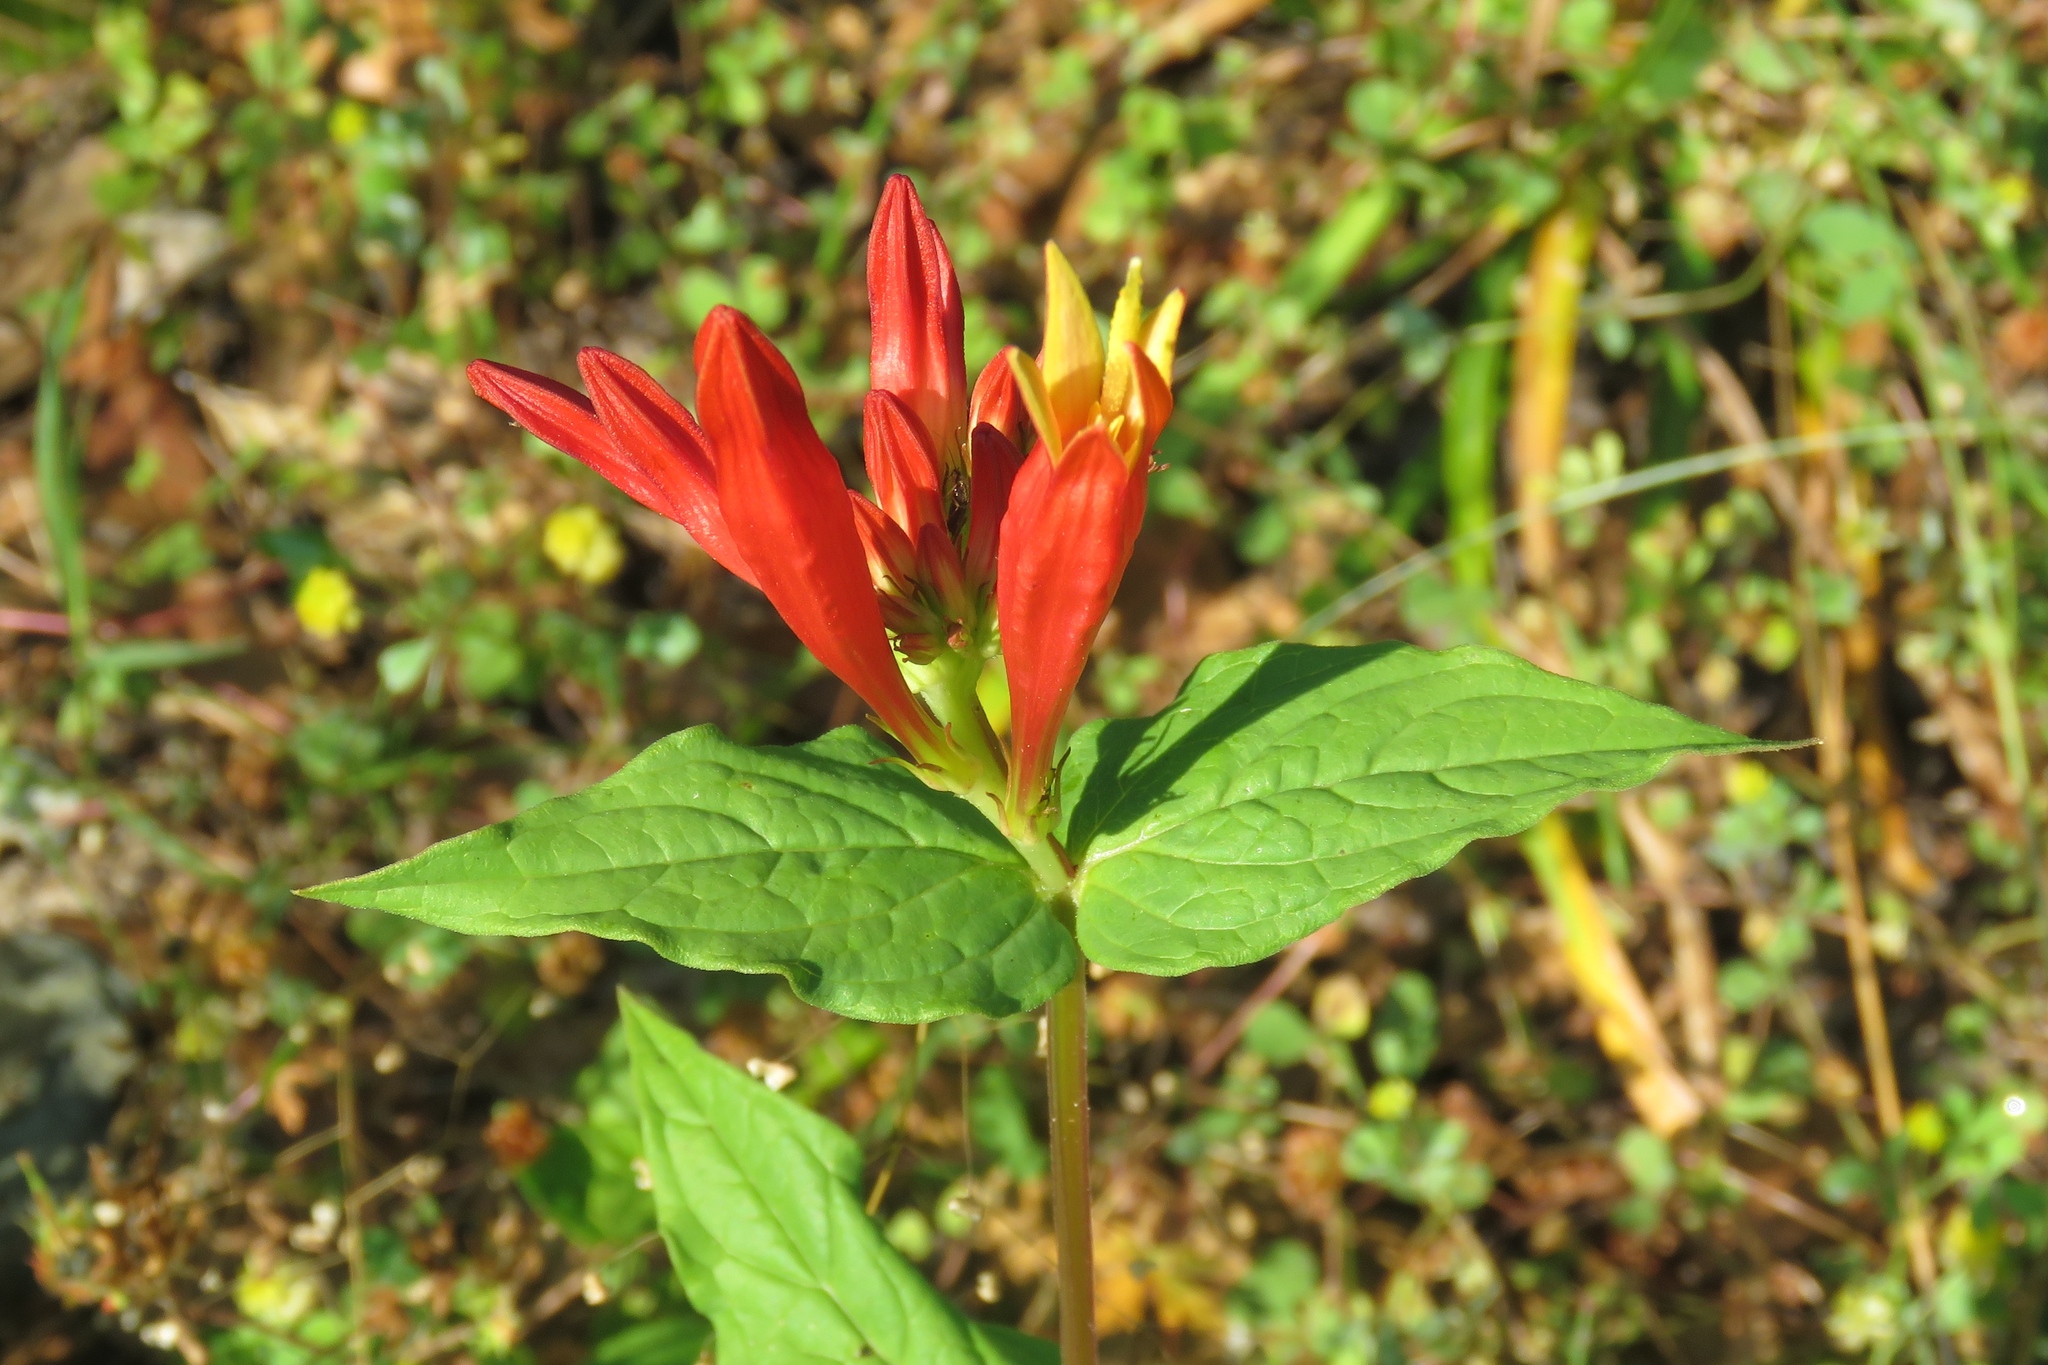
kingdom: Plantae
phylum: Tracheophyta
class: Magnoliopsida
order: Gentianales
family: Loganiaceae
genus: Spigelia
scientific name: Spigelia marilandica
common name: Indian-pink
